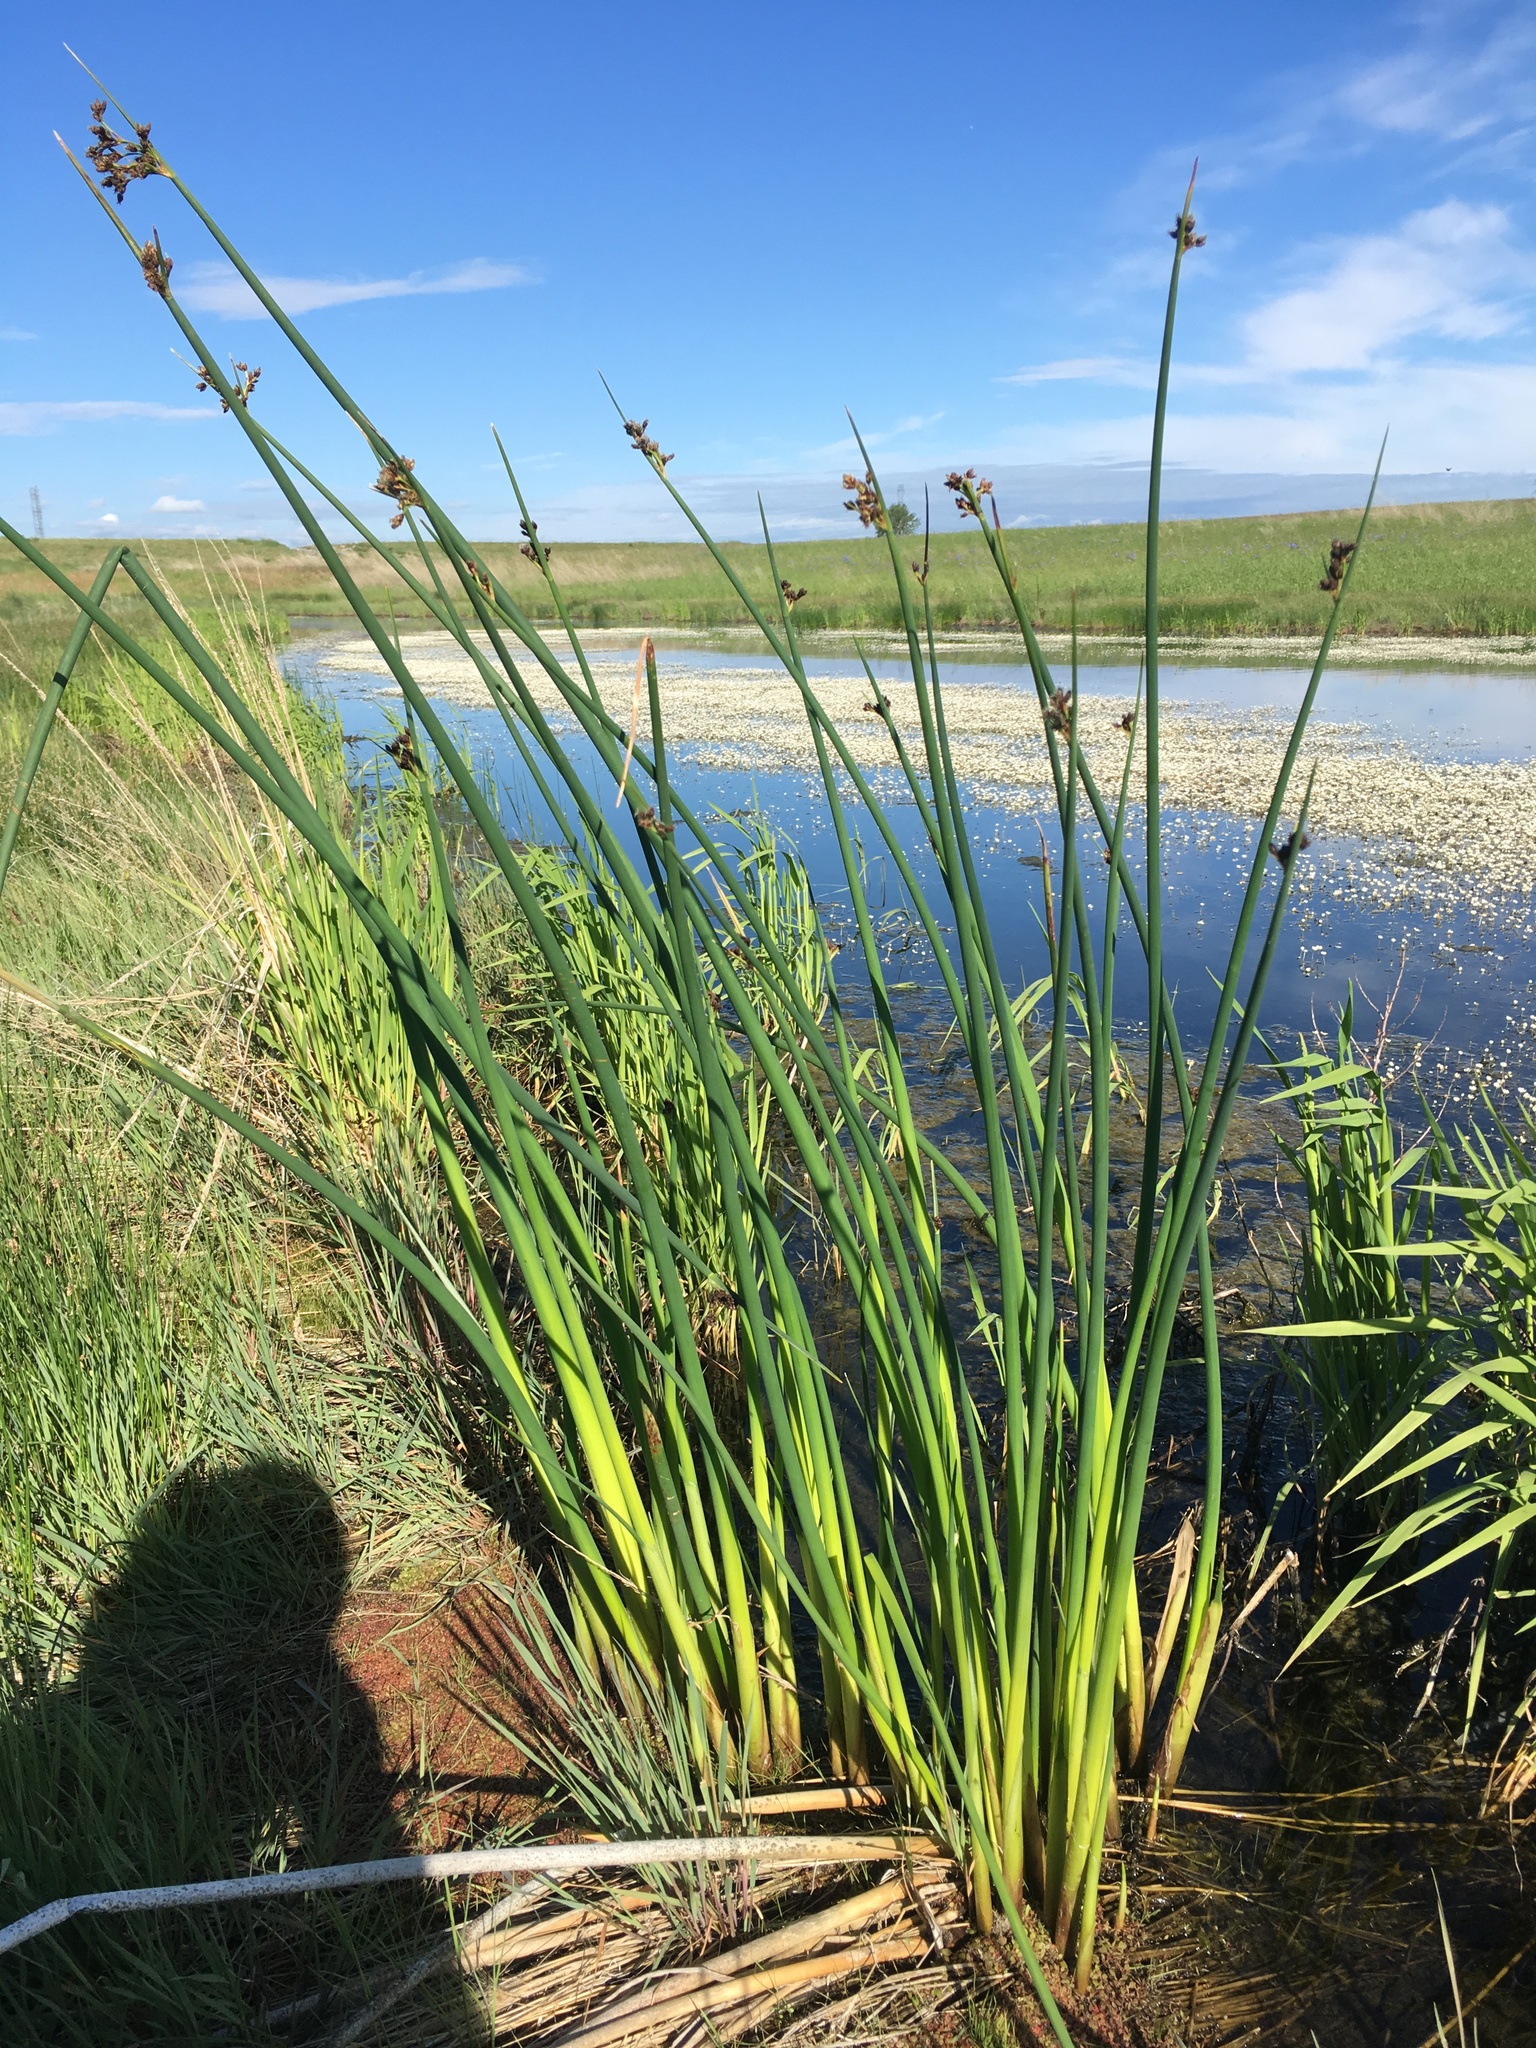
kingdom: Plantae
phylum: Tracheophyta
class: Liliopsida
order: Poales
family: Cyperaceae
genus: Schoenoplectus
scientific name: Schoenoplectus acutus
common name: Hardstem bulrush
